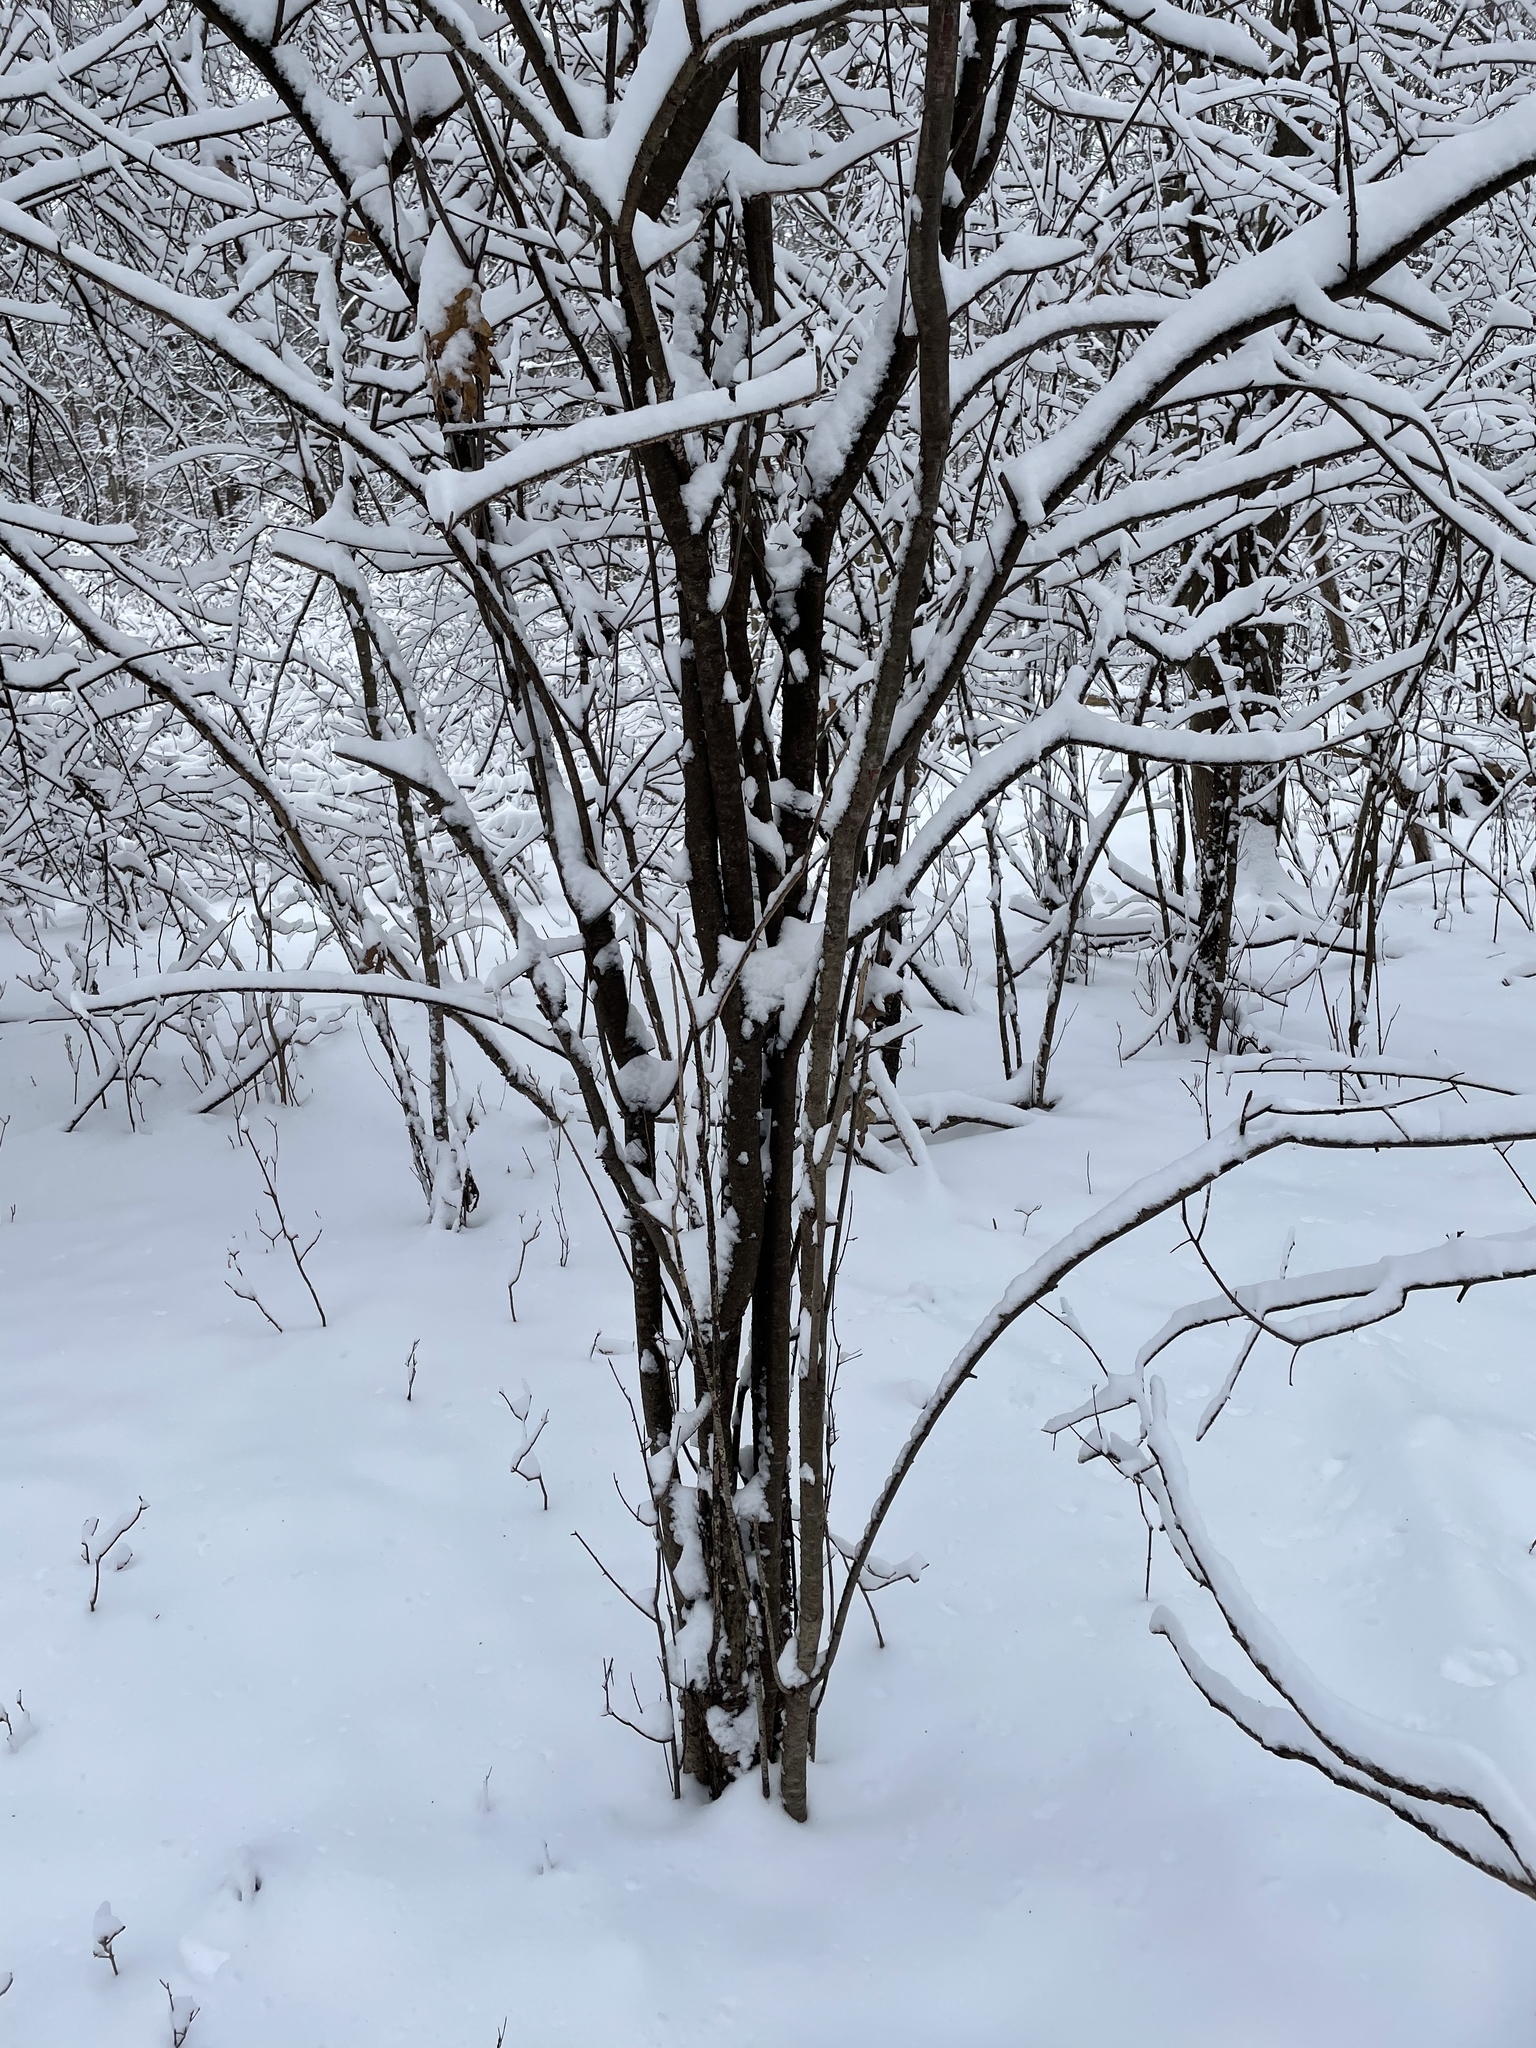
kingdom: Plantae
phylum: Tracheophyta
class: Magnoliopsida
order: Rosales
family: Rhamnaceae
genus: Rhamnus
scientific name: Rhamnus cathartica
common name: Common buckthorn
